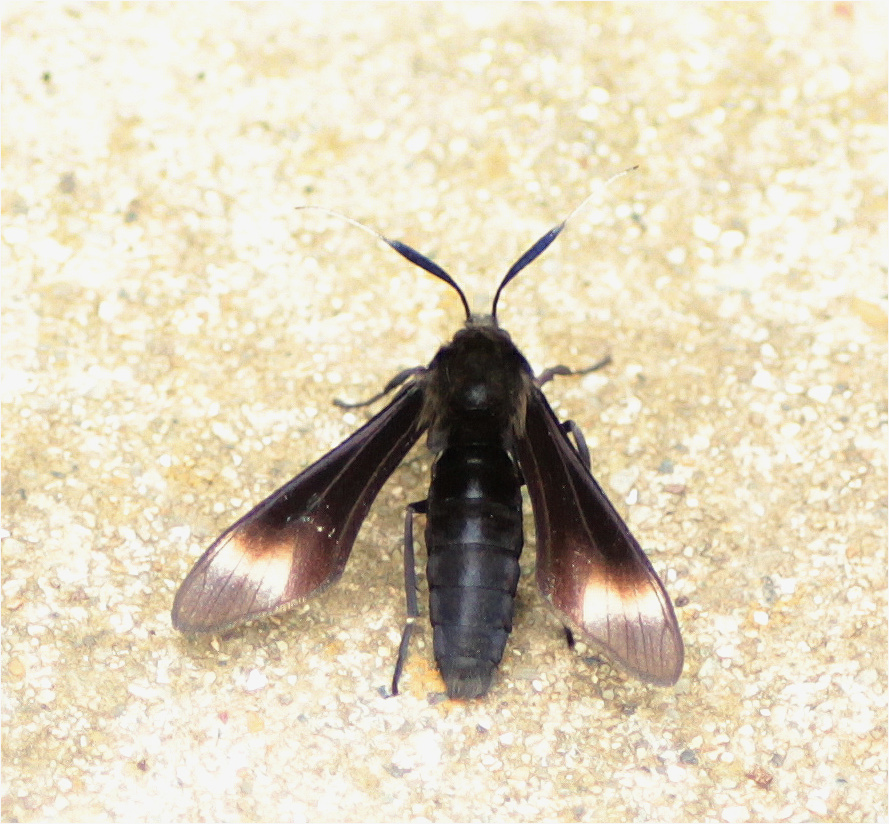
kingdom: Animalia
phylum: Arthropoda
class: Insecta
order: Lepidoptera
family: Erebidae
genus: Pompiliodes
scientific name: Pompiliodes aliena
